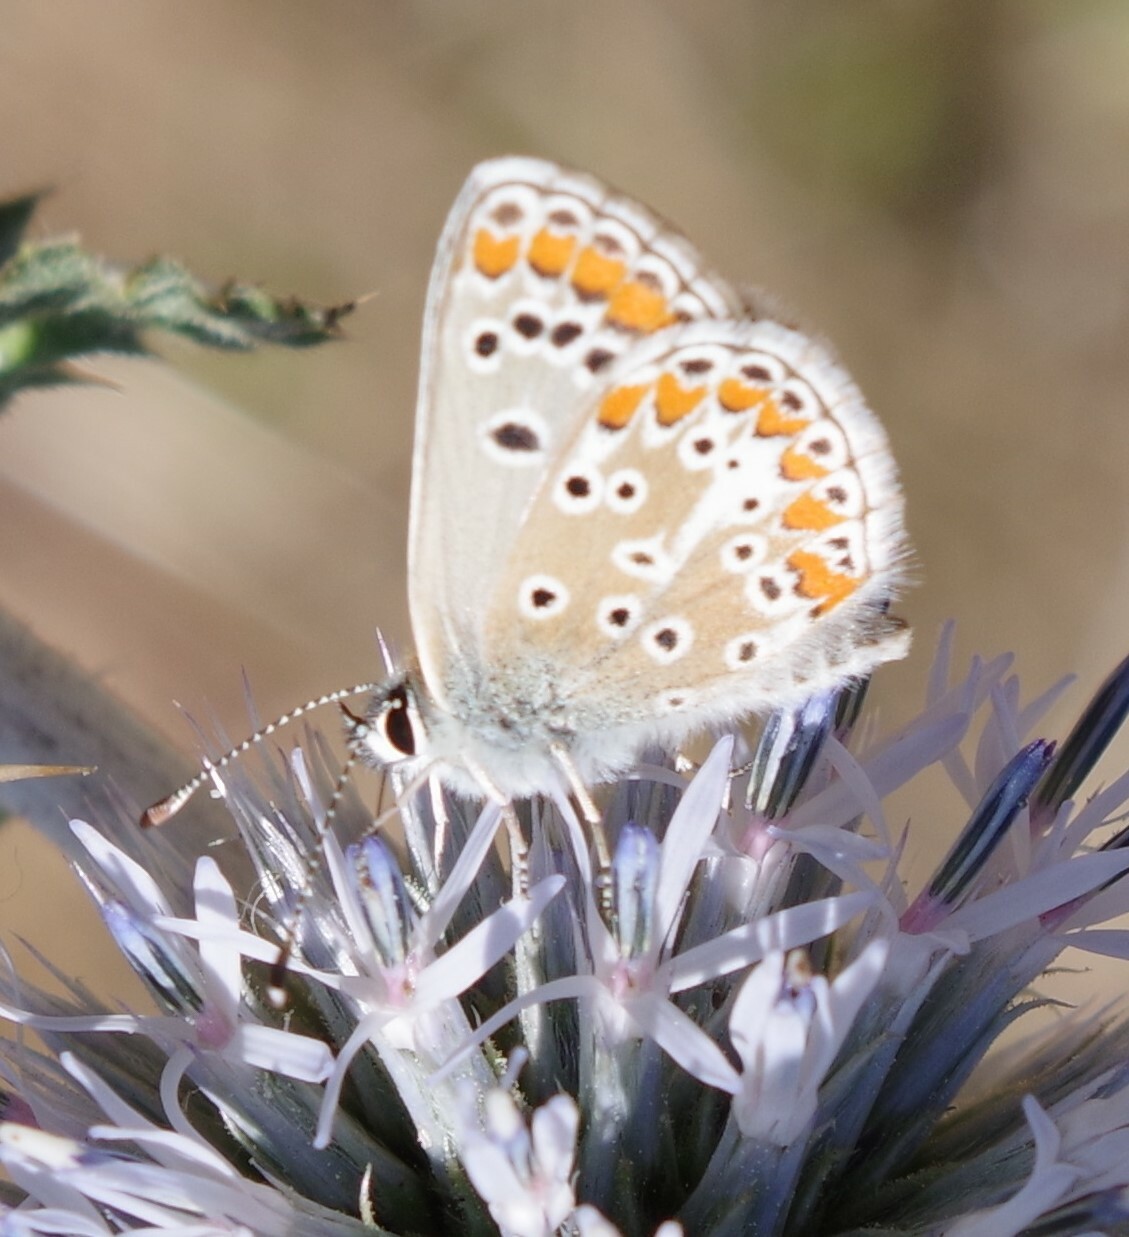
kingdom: Animalia
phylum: Arthropoda
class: Insecta
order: Lepidoptera
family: Lycaenidae
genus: Aricia
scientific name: Aricia agestis
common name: Brown argus
